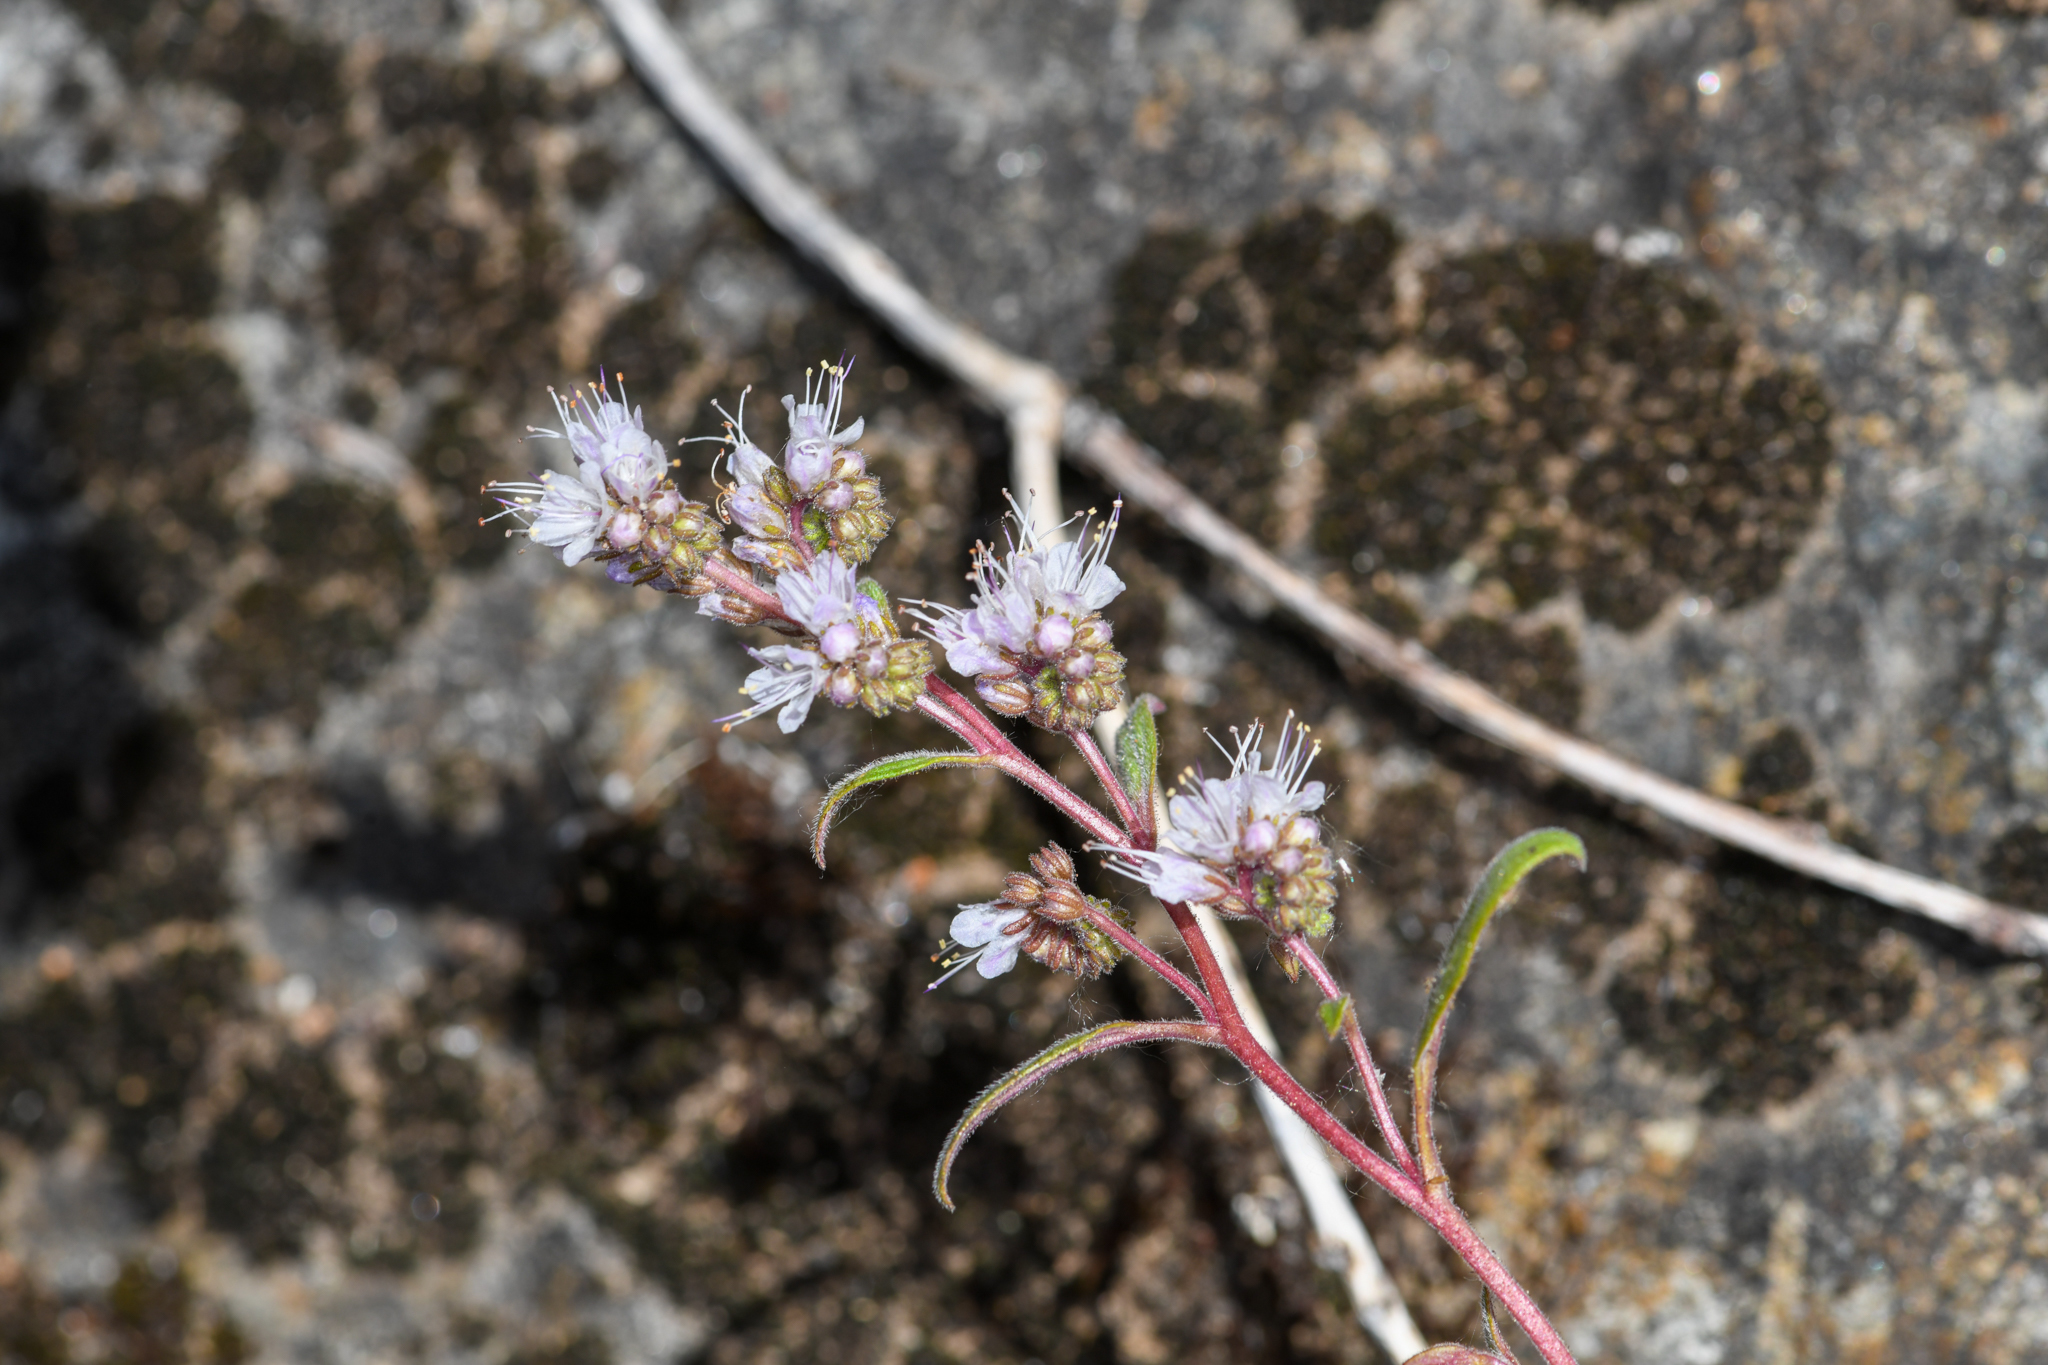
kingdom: Plantae
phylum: Tracheophyta
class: Magnoliopsida
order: Boraginales
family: Hydrophyllaceae
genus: Phacelia
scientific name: Phacelia stebbinsii
